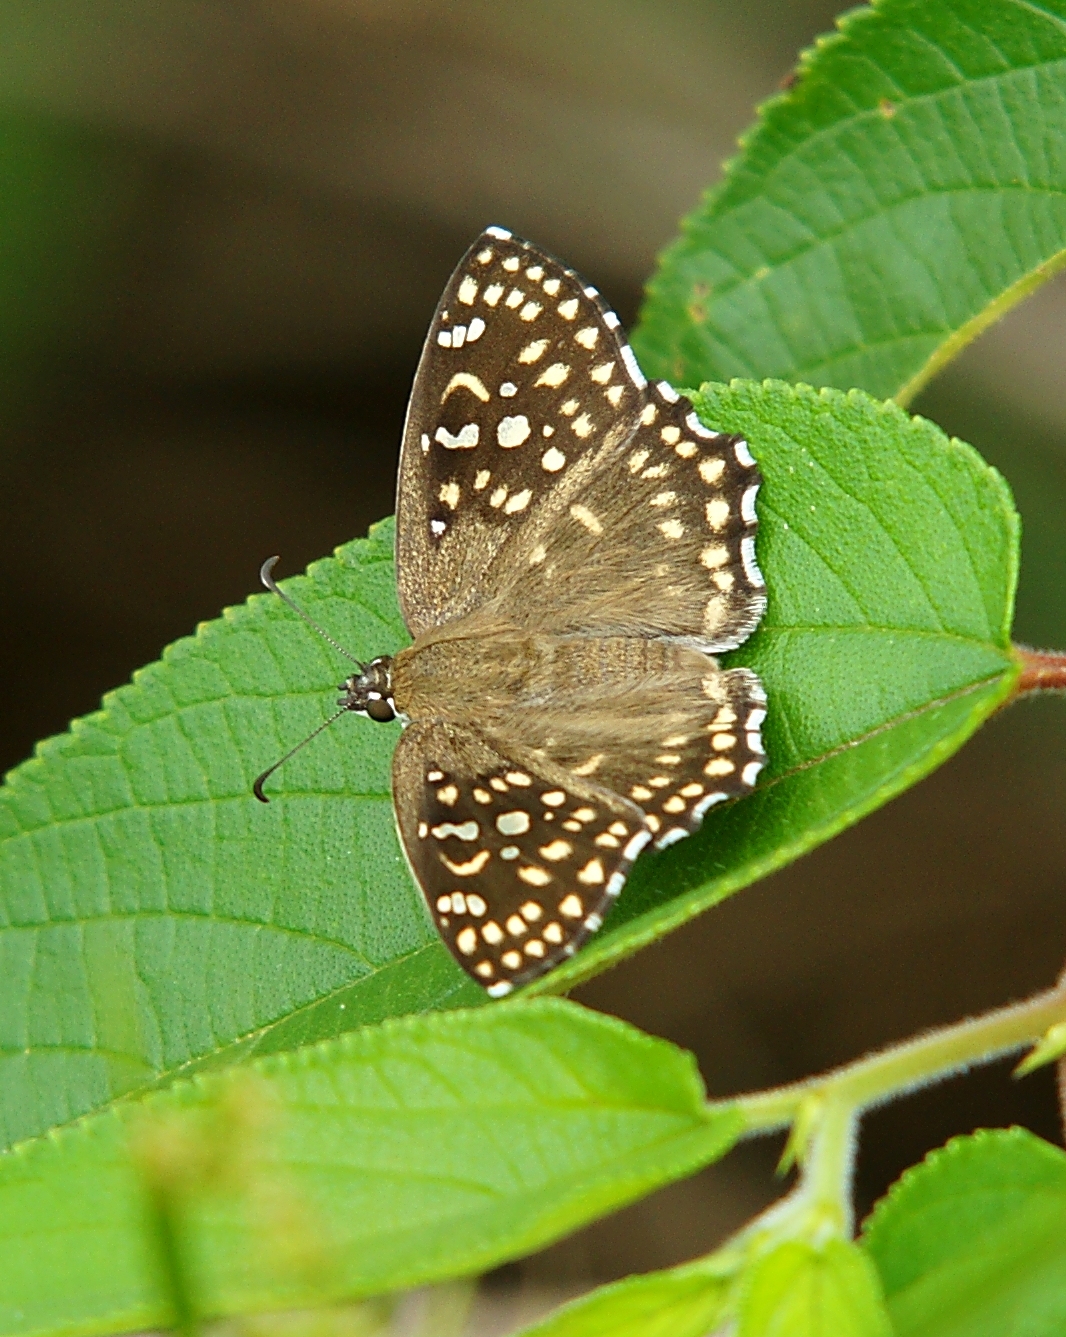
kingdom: Animalia
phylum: Arthropoda
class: Insecta
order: Lepidoptera
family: Hesperiidae
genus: Caprona
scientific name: Caprona alida
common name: Spotted angle
